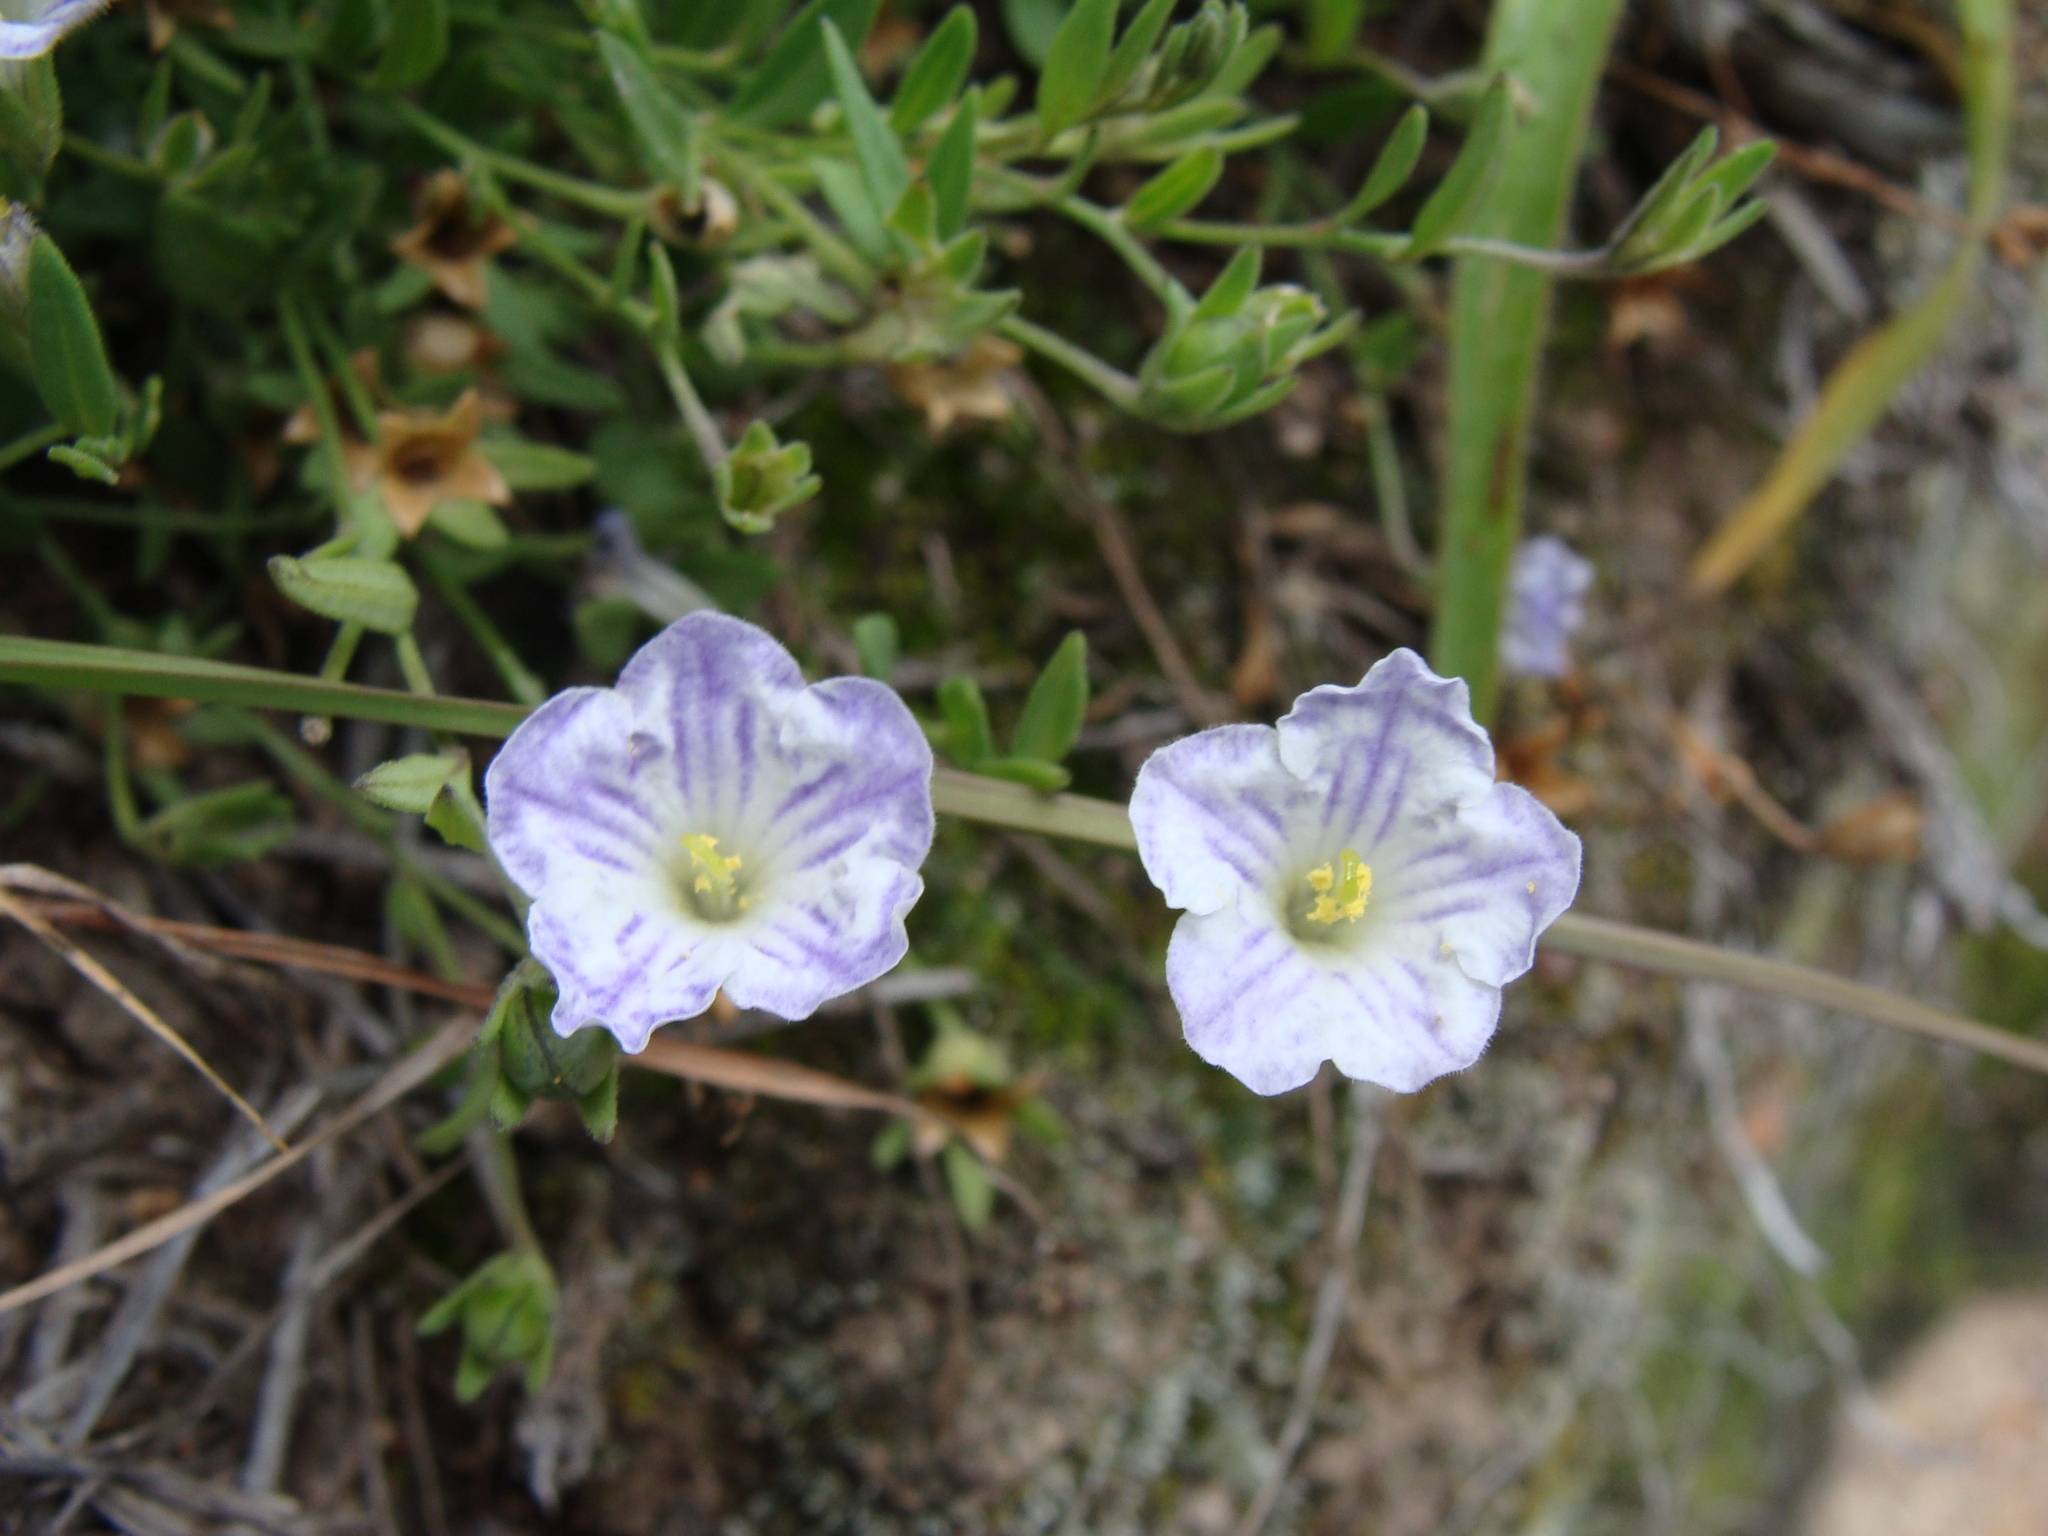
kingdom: Plantae
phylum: Tracheophyta
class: Magnoliopsida
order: Solanales
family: Solanaceae
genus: Salpiglossis
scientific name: Salpiglossis erecta
